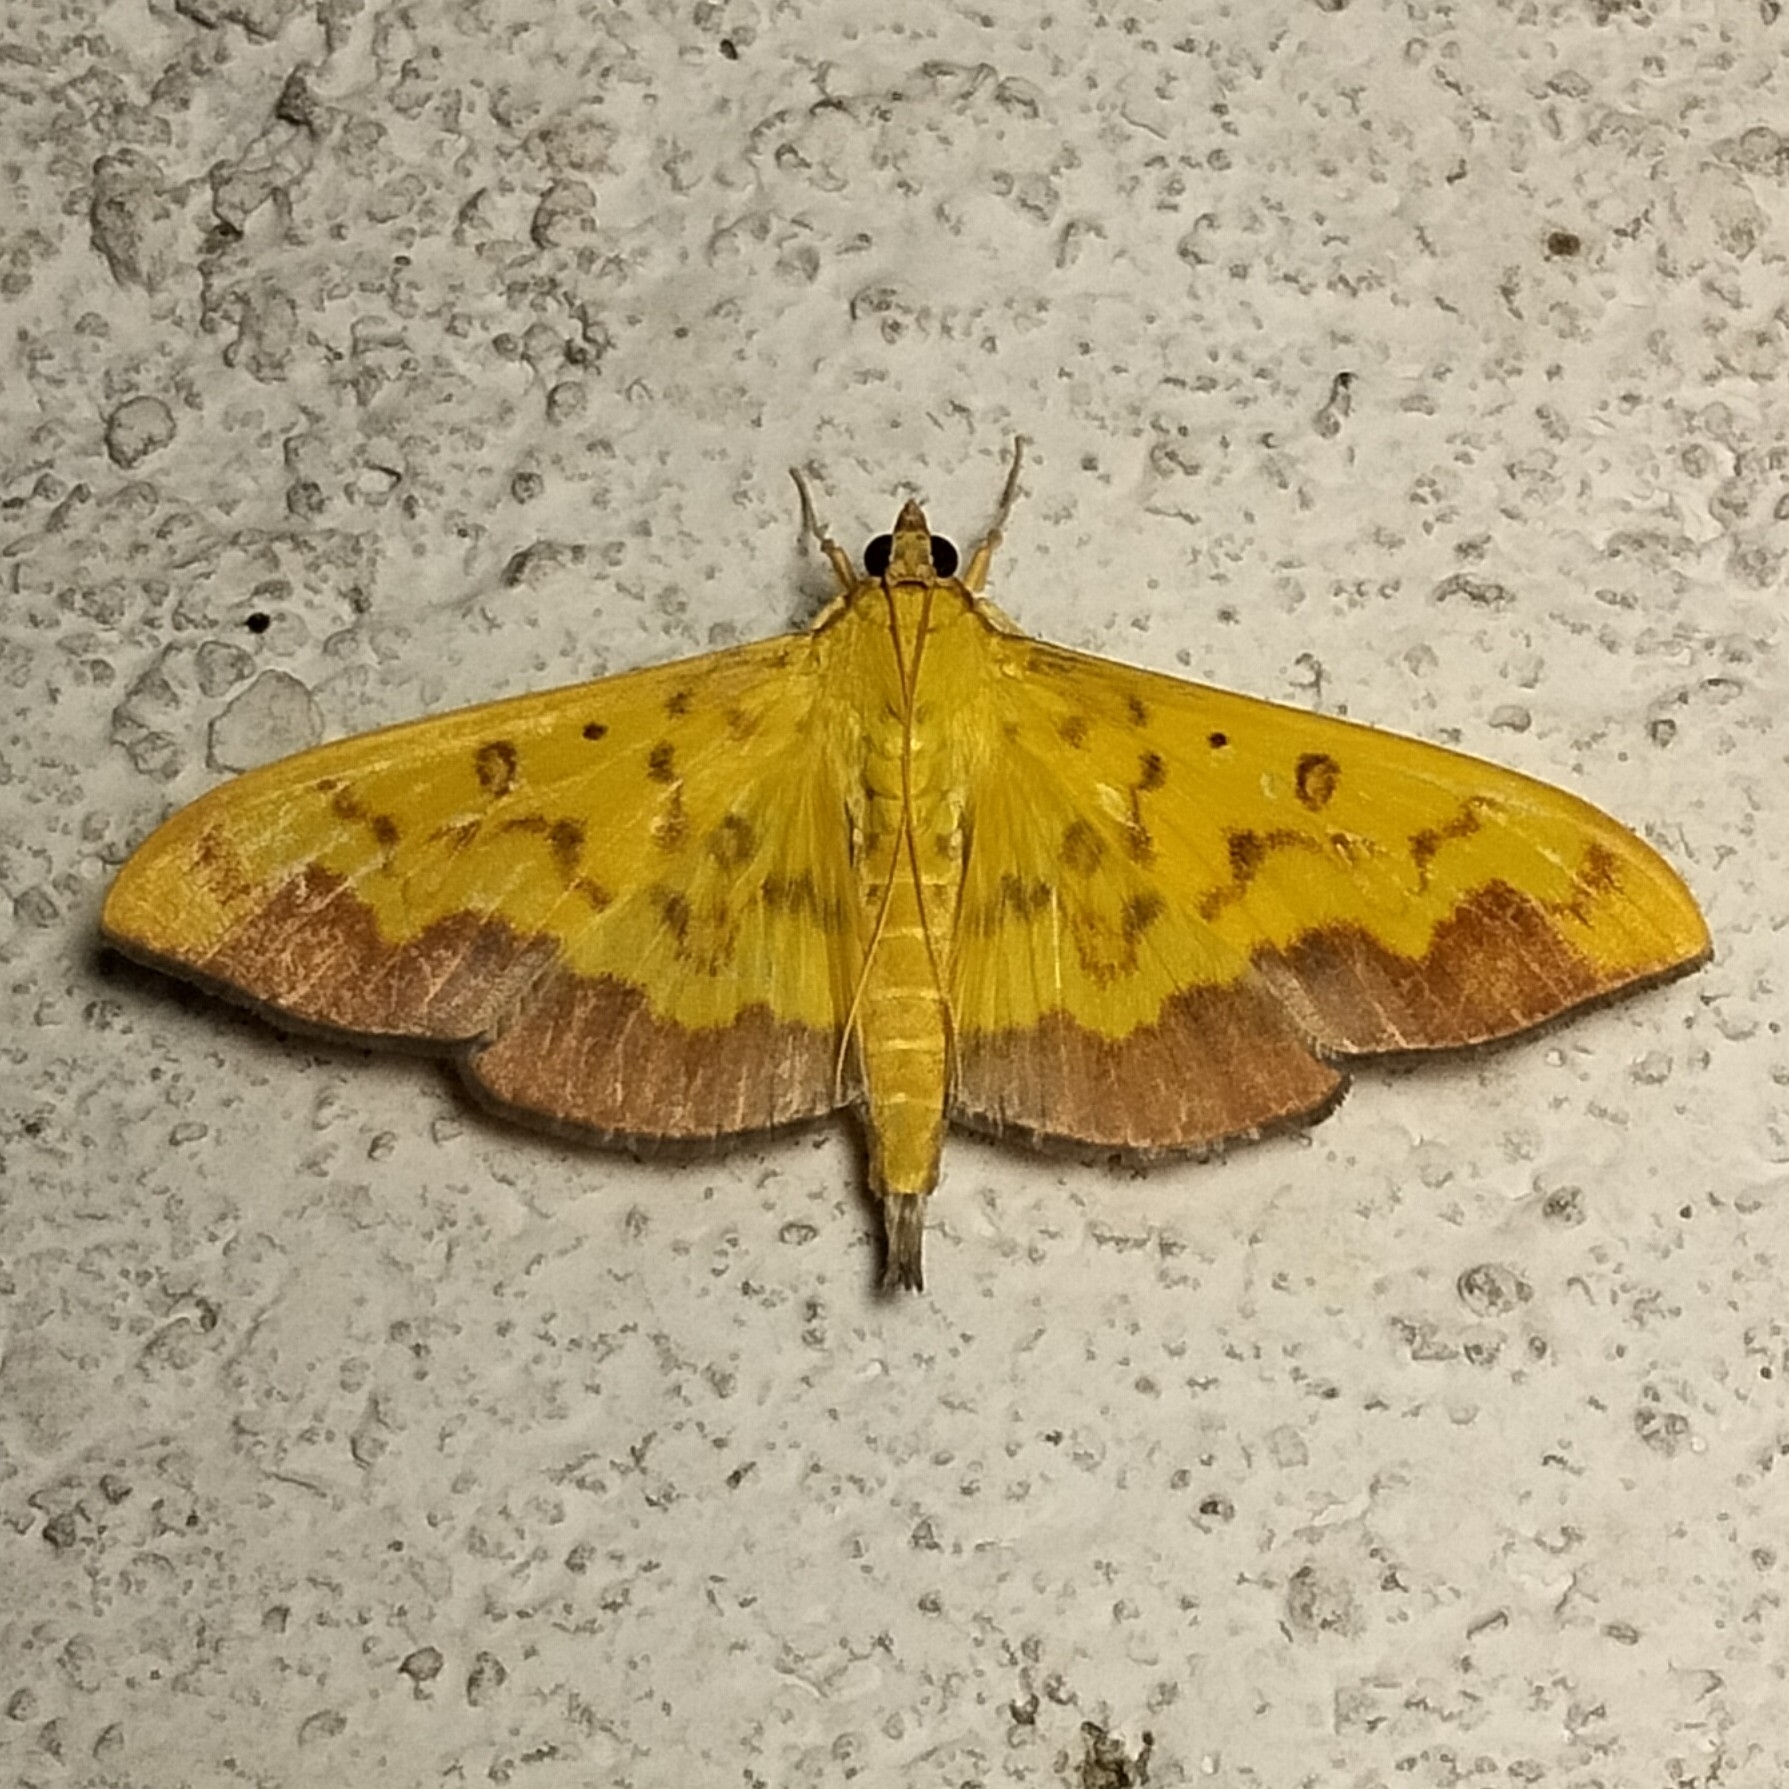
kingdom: Animalia
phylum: Arthropoda
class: Insecta
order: Lepidoptera
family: Crambidae
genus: Botyodes
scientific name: Botyodes asialis
